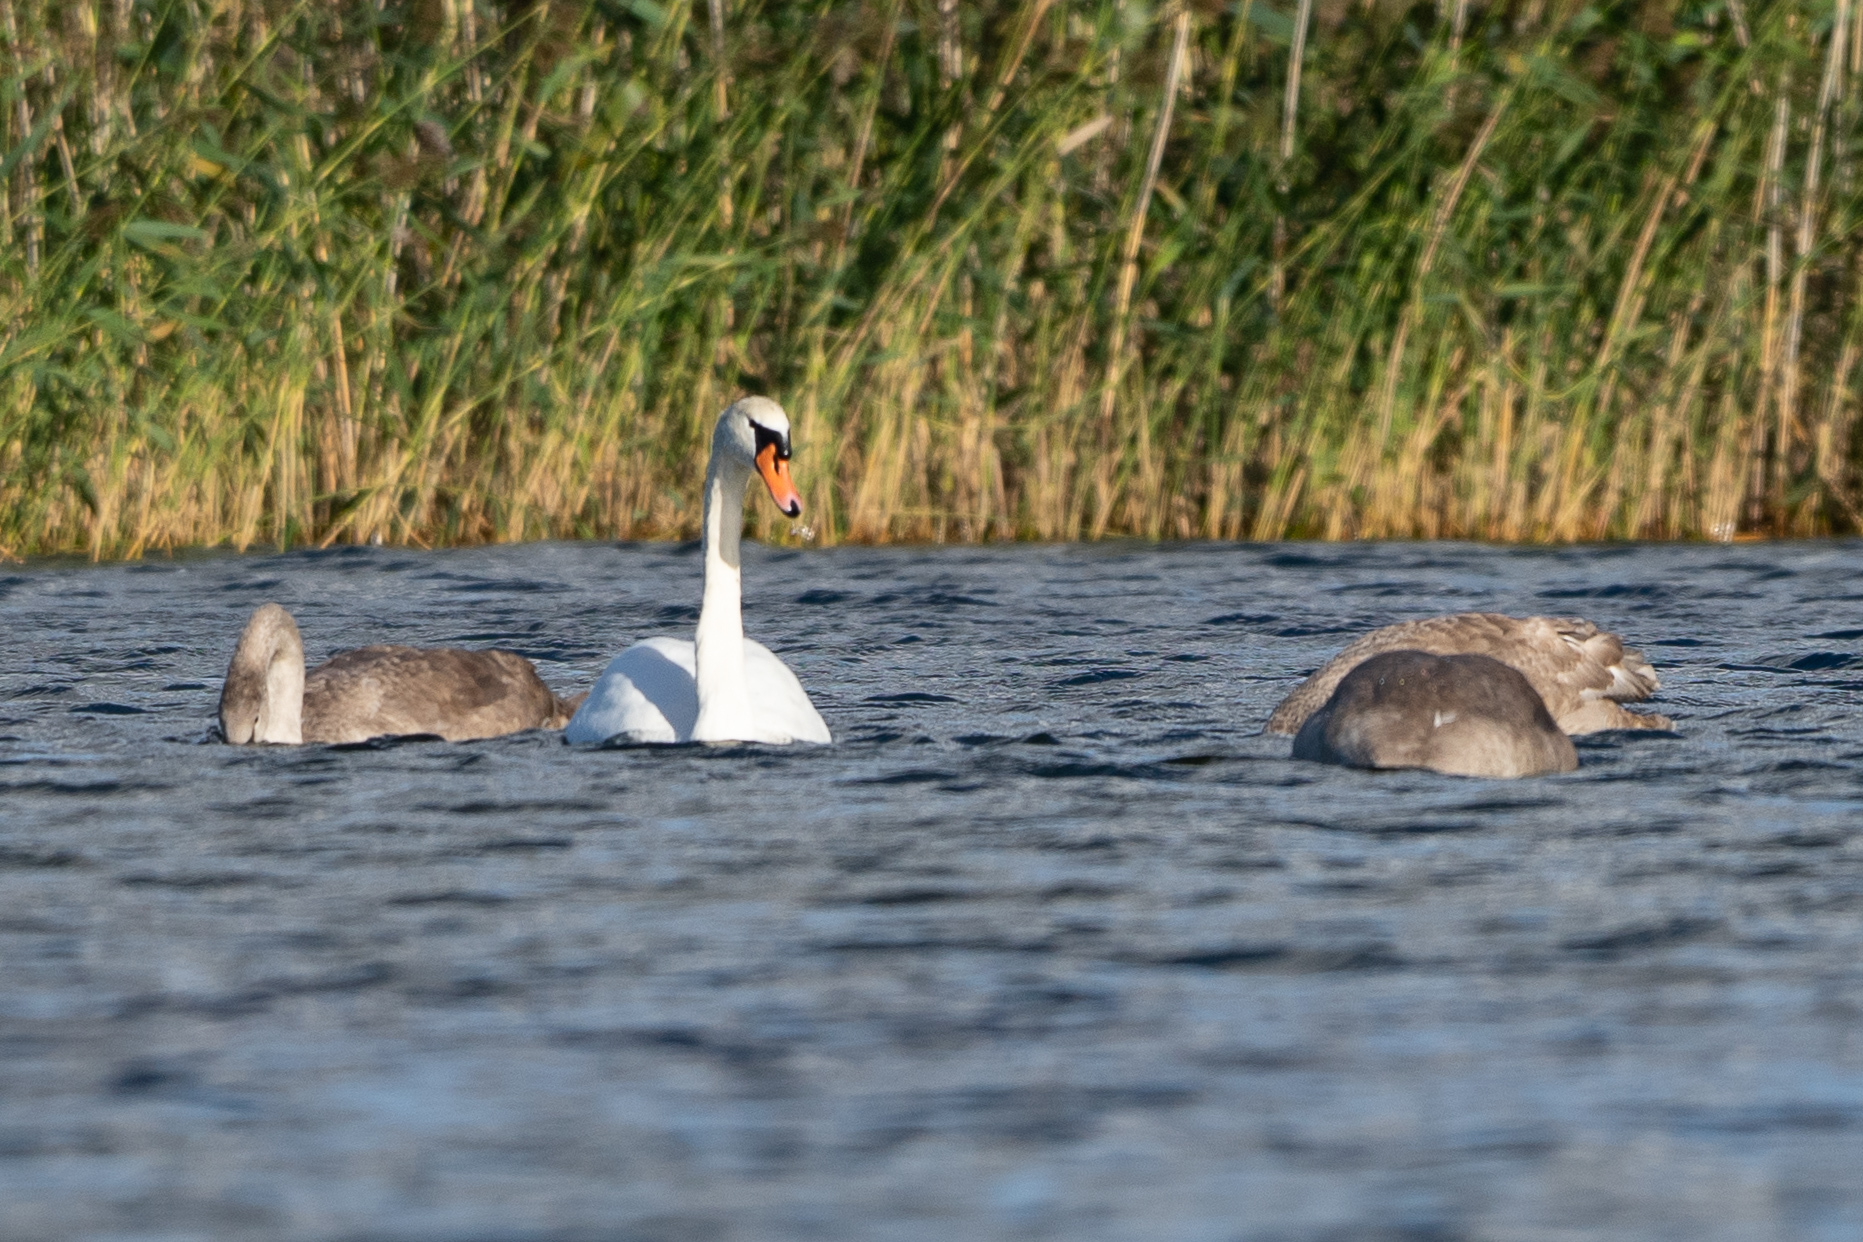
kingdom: Animalia
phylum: Chordata
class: Aves
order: Anseriformes
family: Anatidae
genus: Cygnus
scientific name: Cygnus olor
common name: Mute swan
